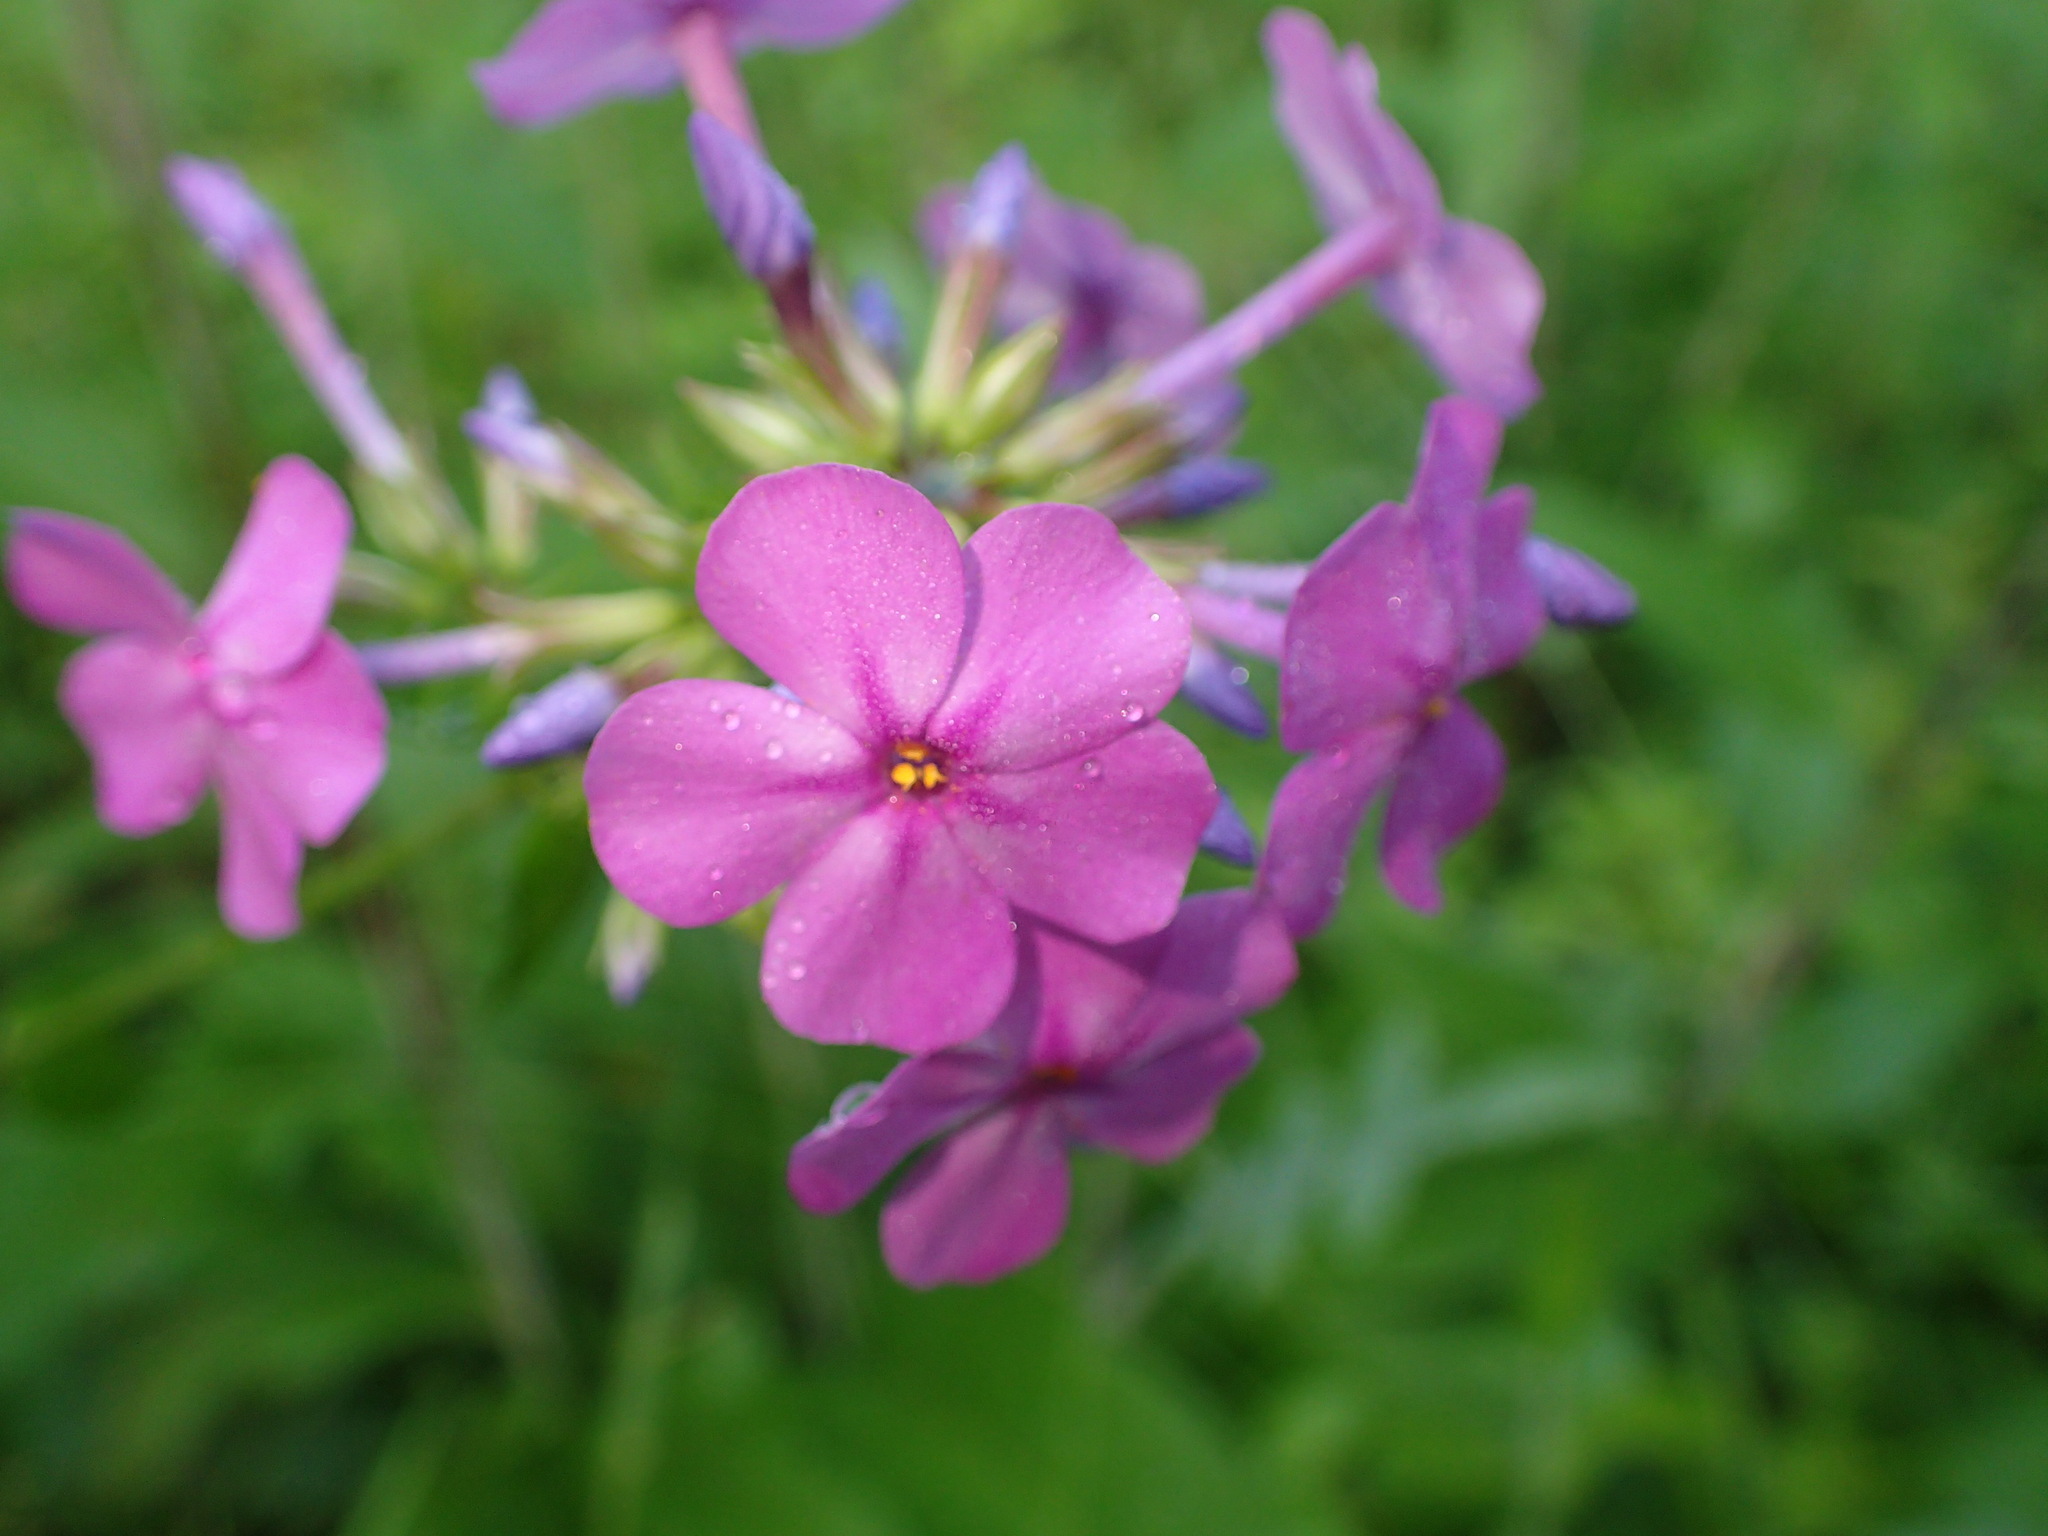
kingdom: Plantae
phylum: Tracheophyta
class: Magnoliopsida
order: Ericales
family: Polemoniaceae
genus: Phlox
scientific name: Phlox carolina
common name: Thick-leaf phlox
